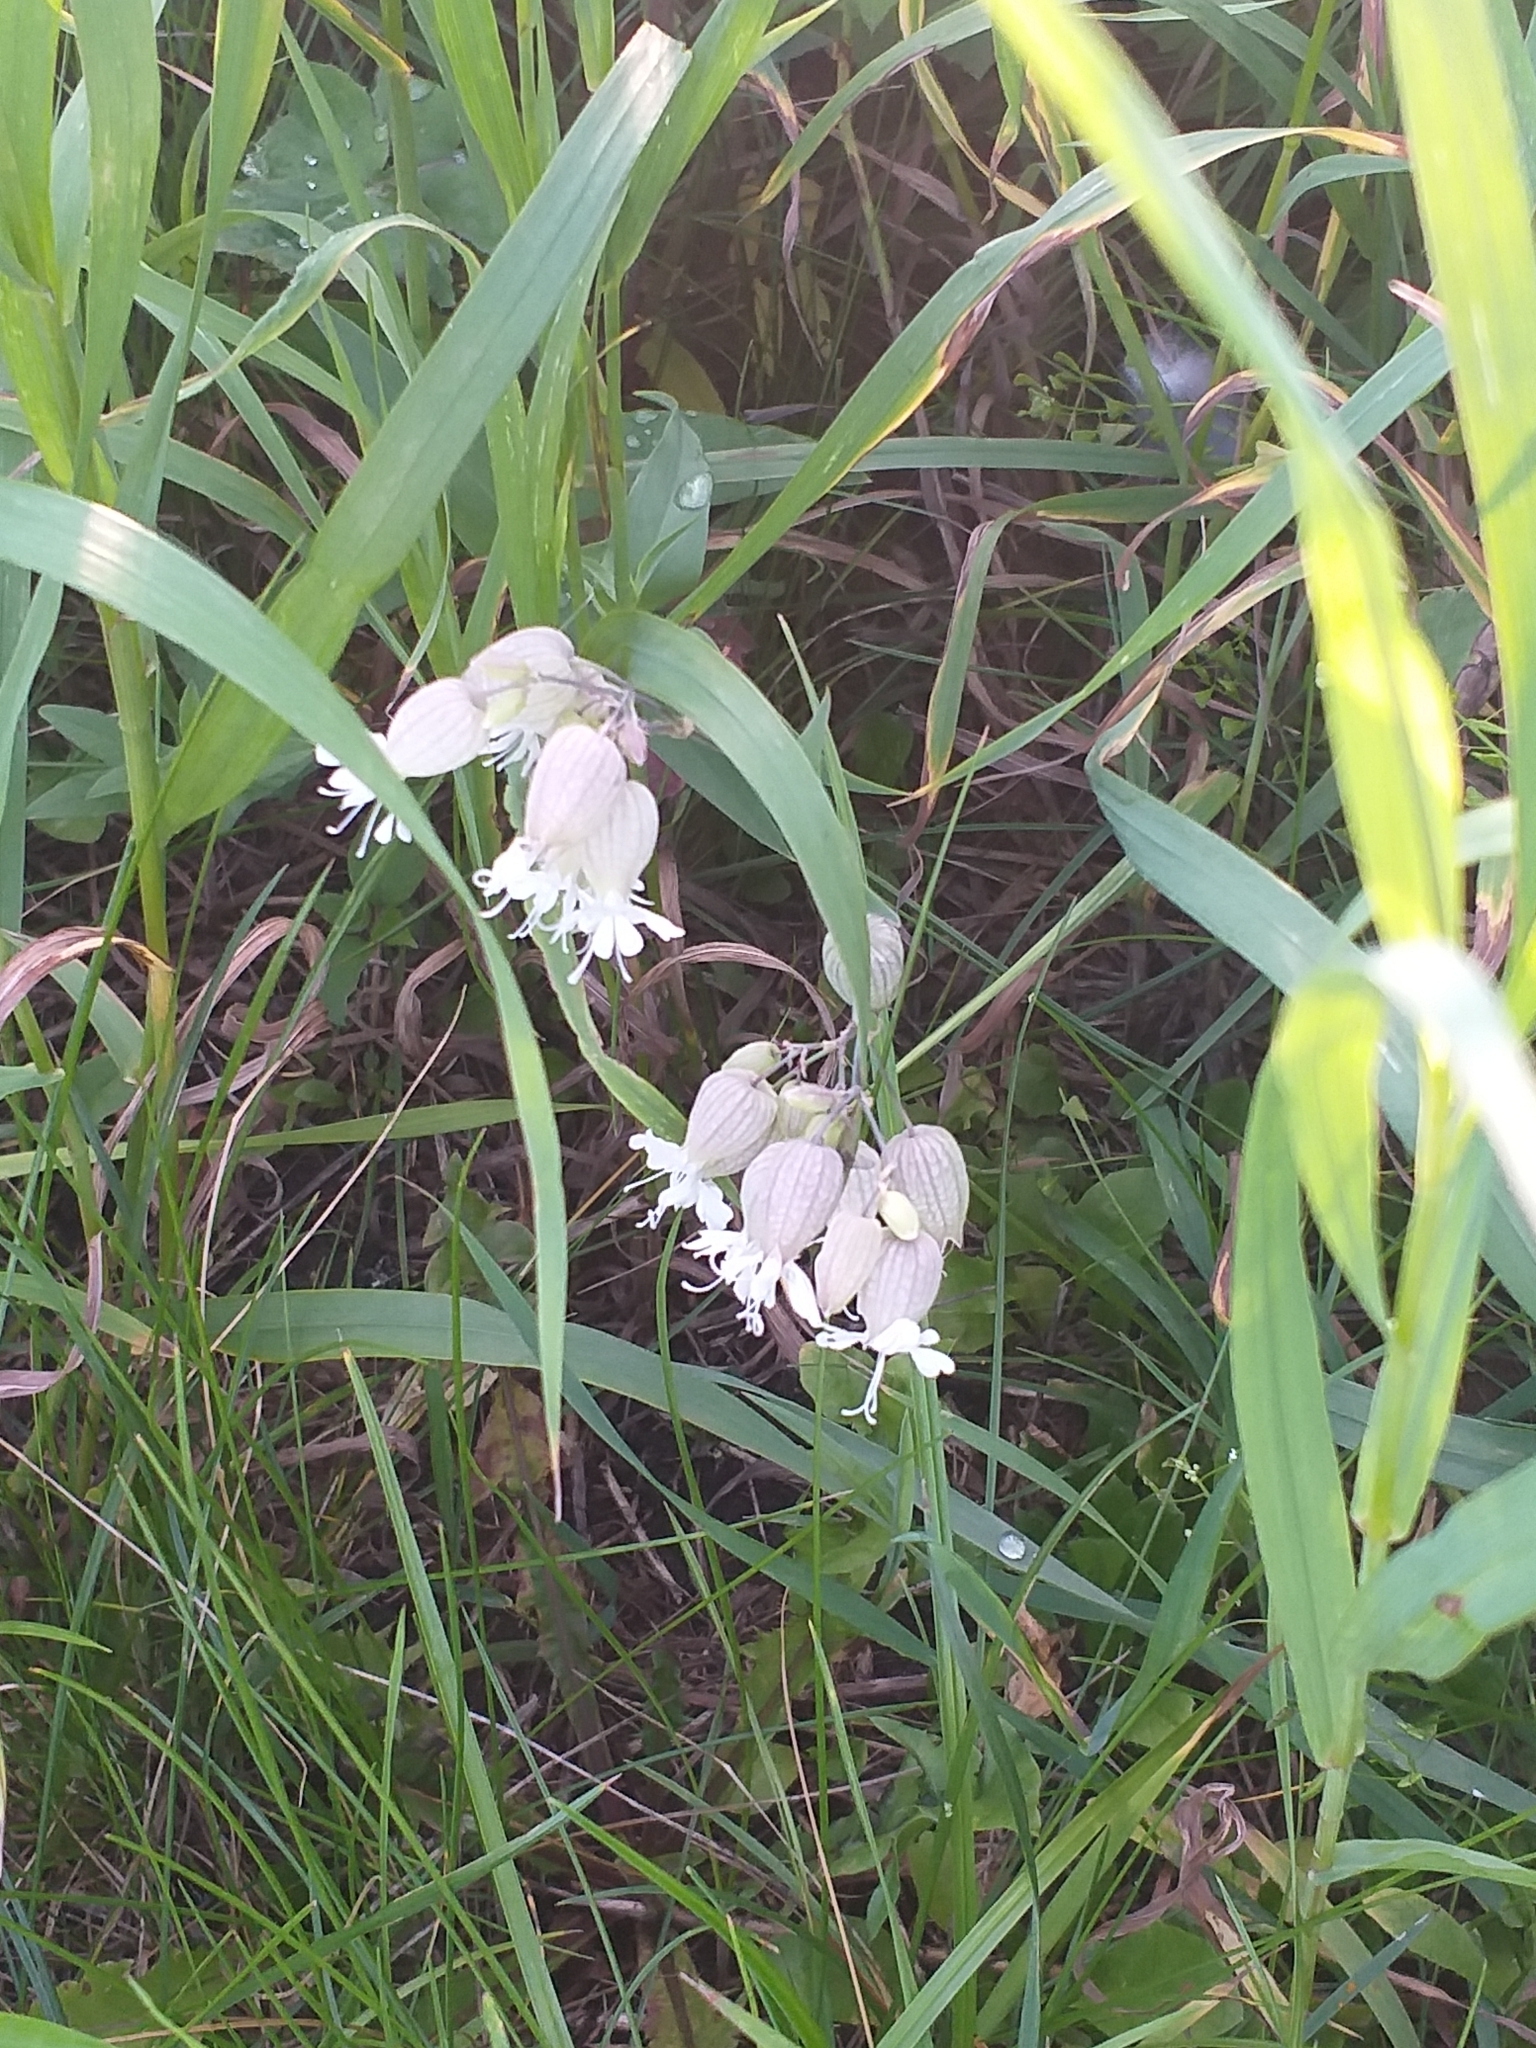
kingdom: Plantae
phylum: Tracheophyta
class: Magnoliopsida
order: Caryophyllales
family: Caryophyllaceae
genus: Silene
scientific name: Silene vulgaris
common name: Bladder campion
